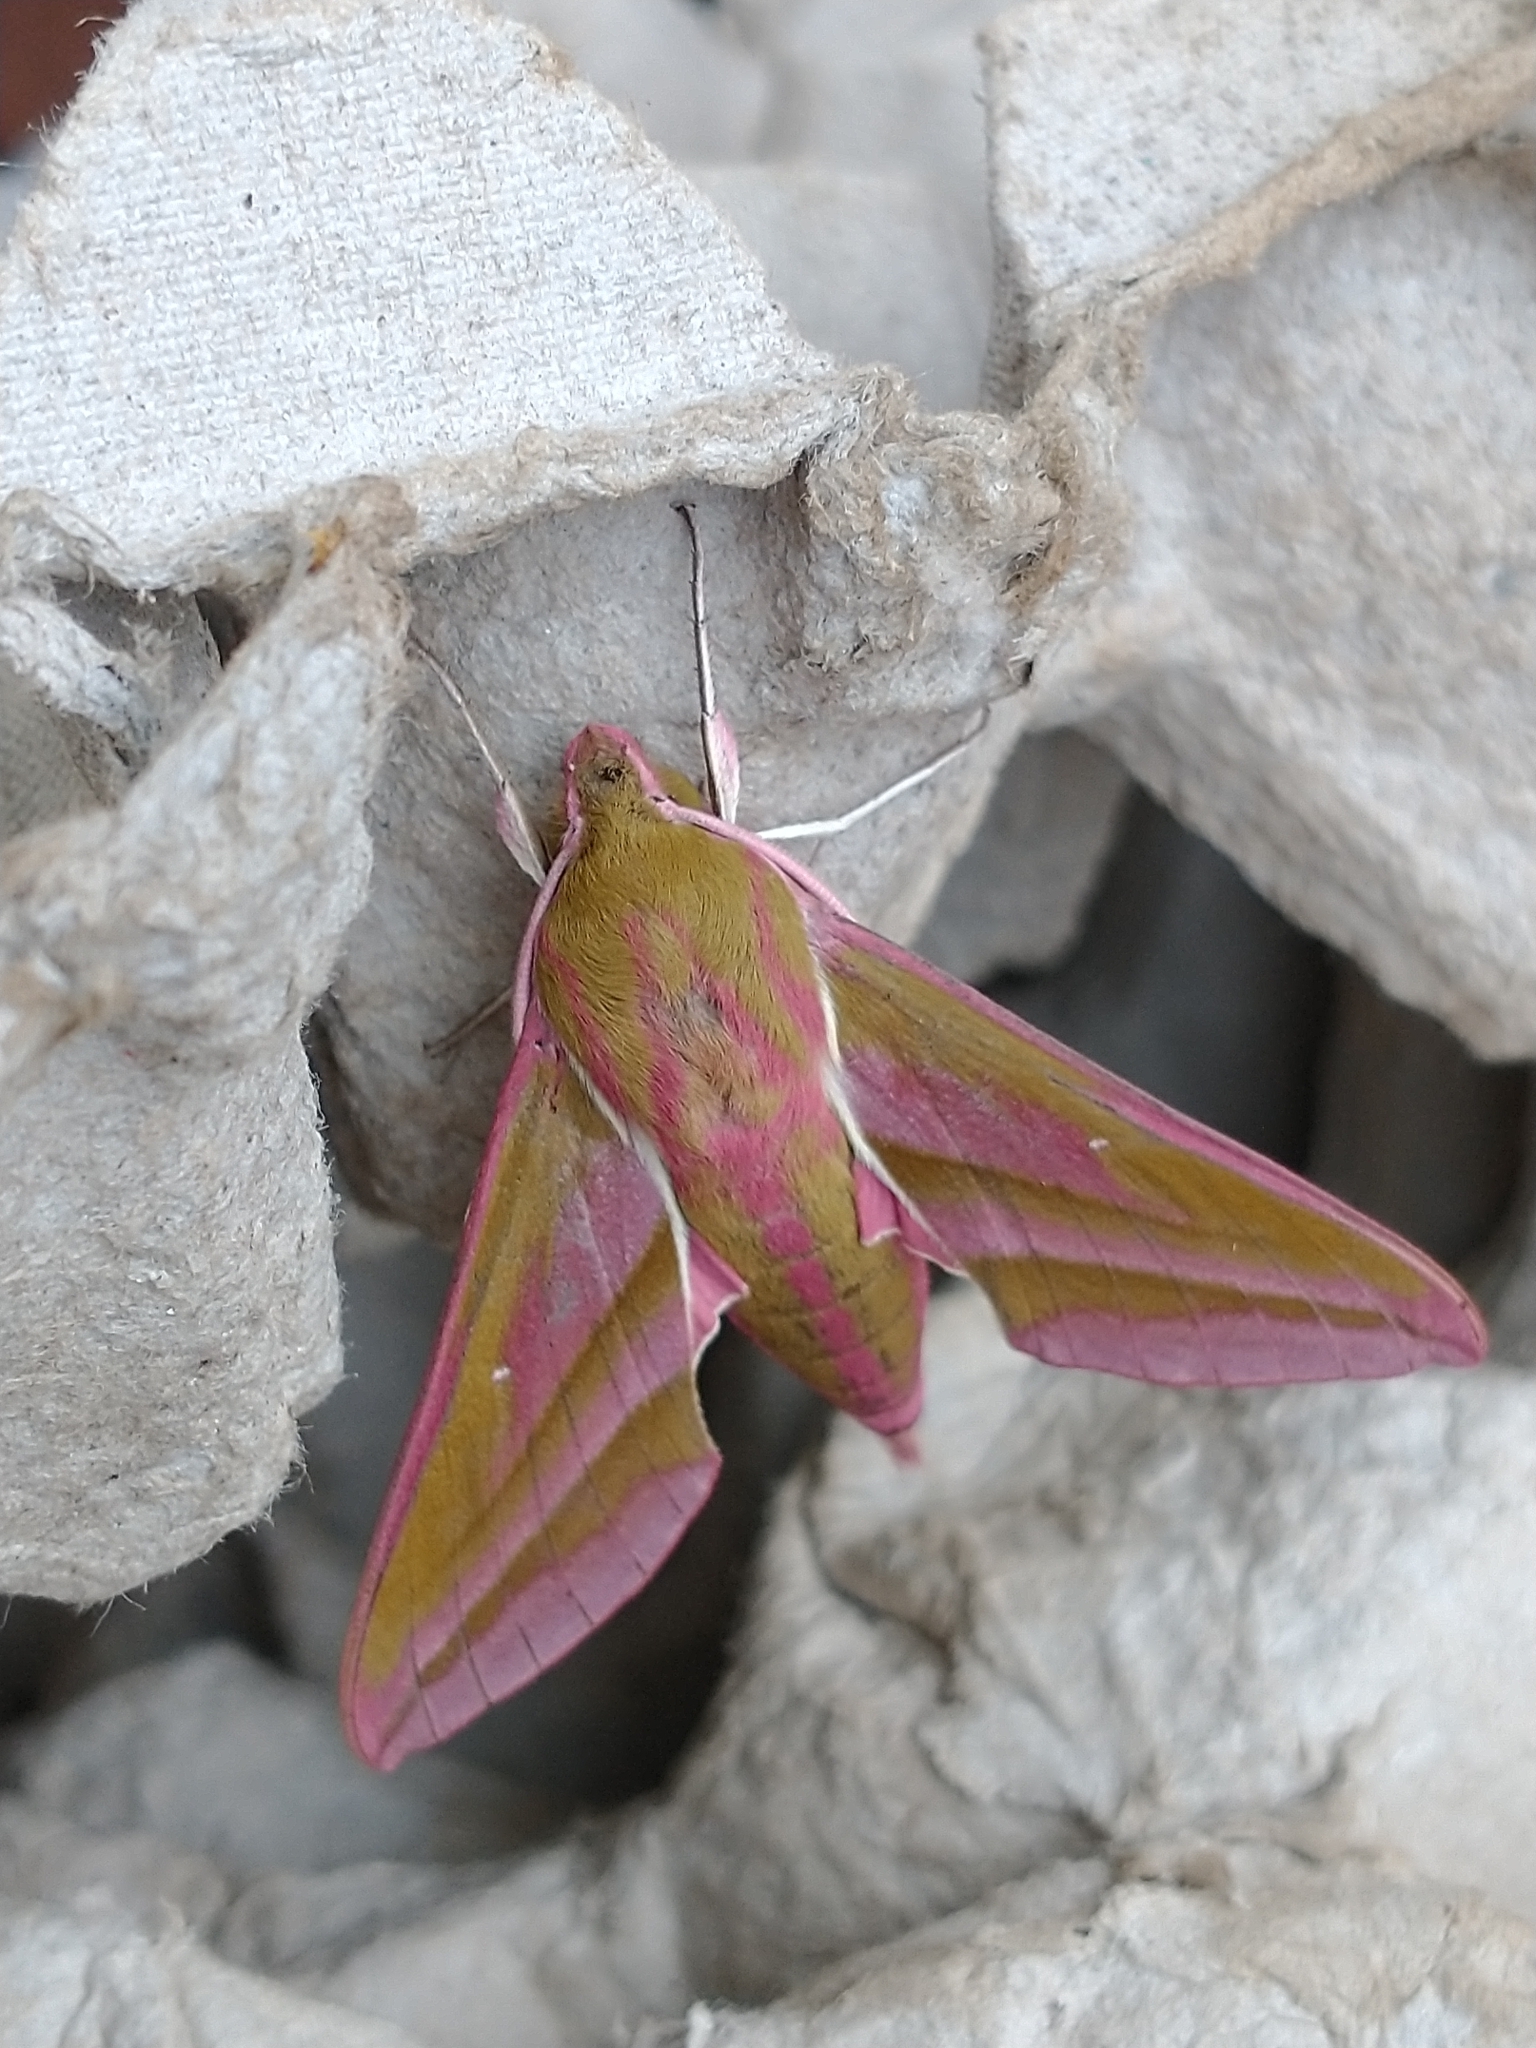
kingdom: Animalia
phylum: Arthropoda
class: Insecta
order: Lepidoptera
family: Sphingidae
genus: Deilephila
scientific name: Deilephila elpenor
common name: Elephant hawk-moth
